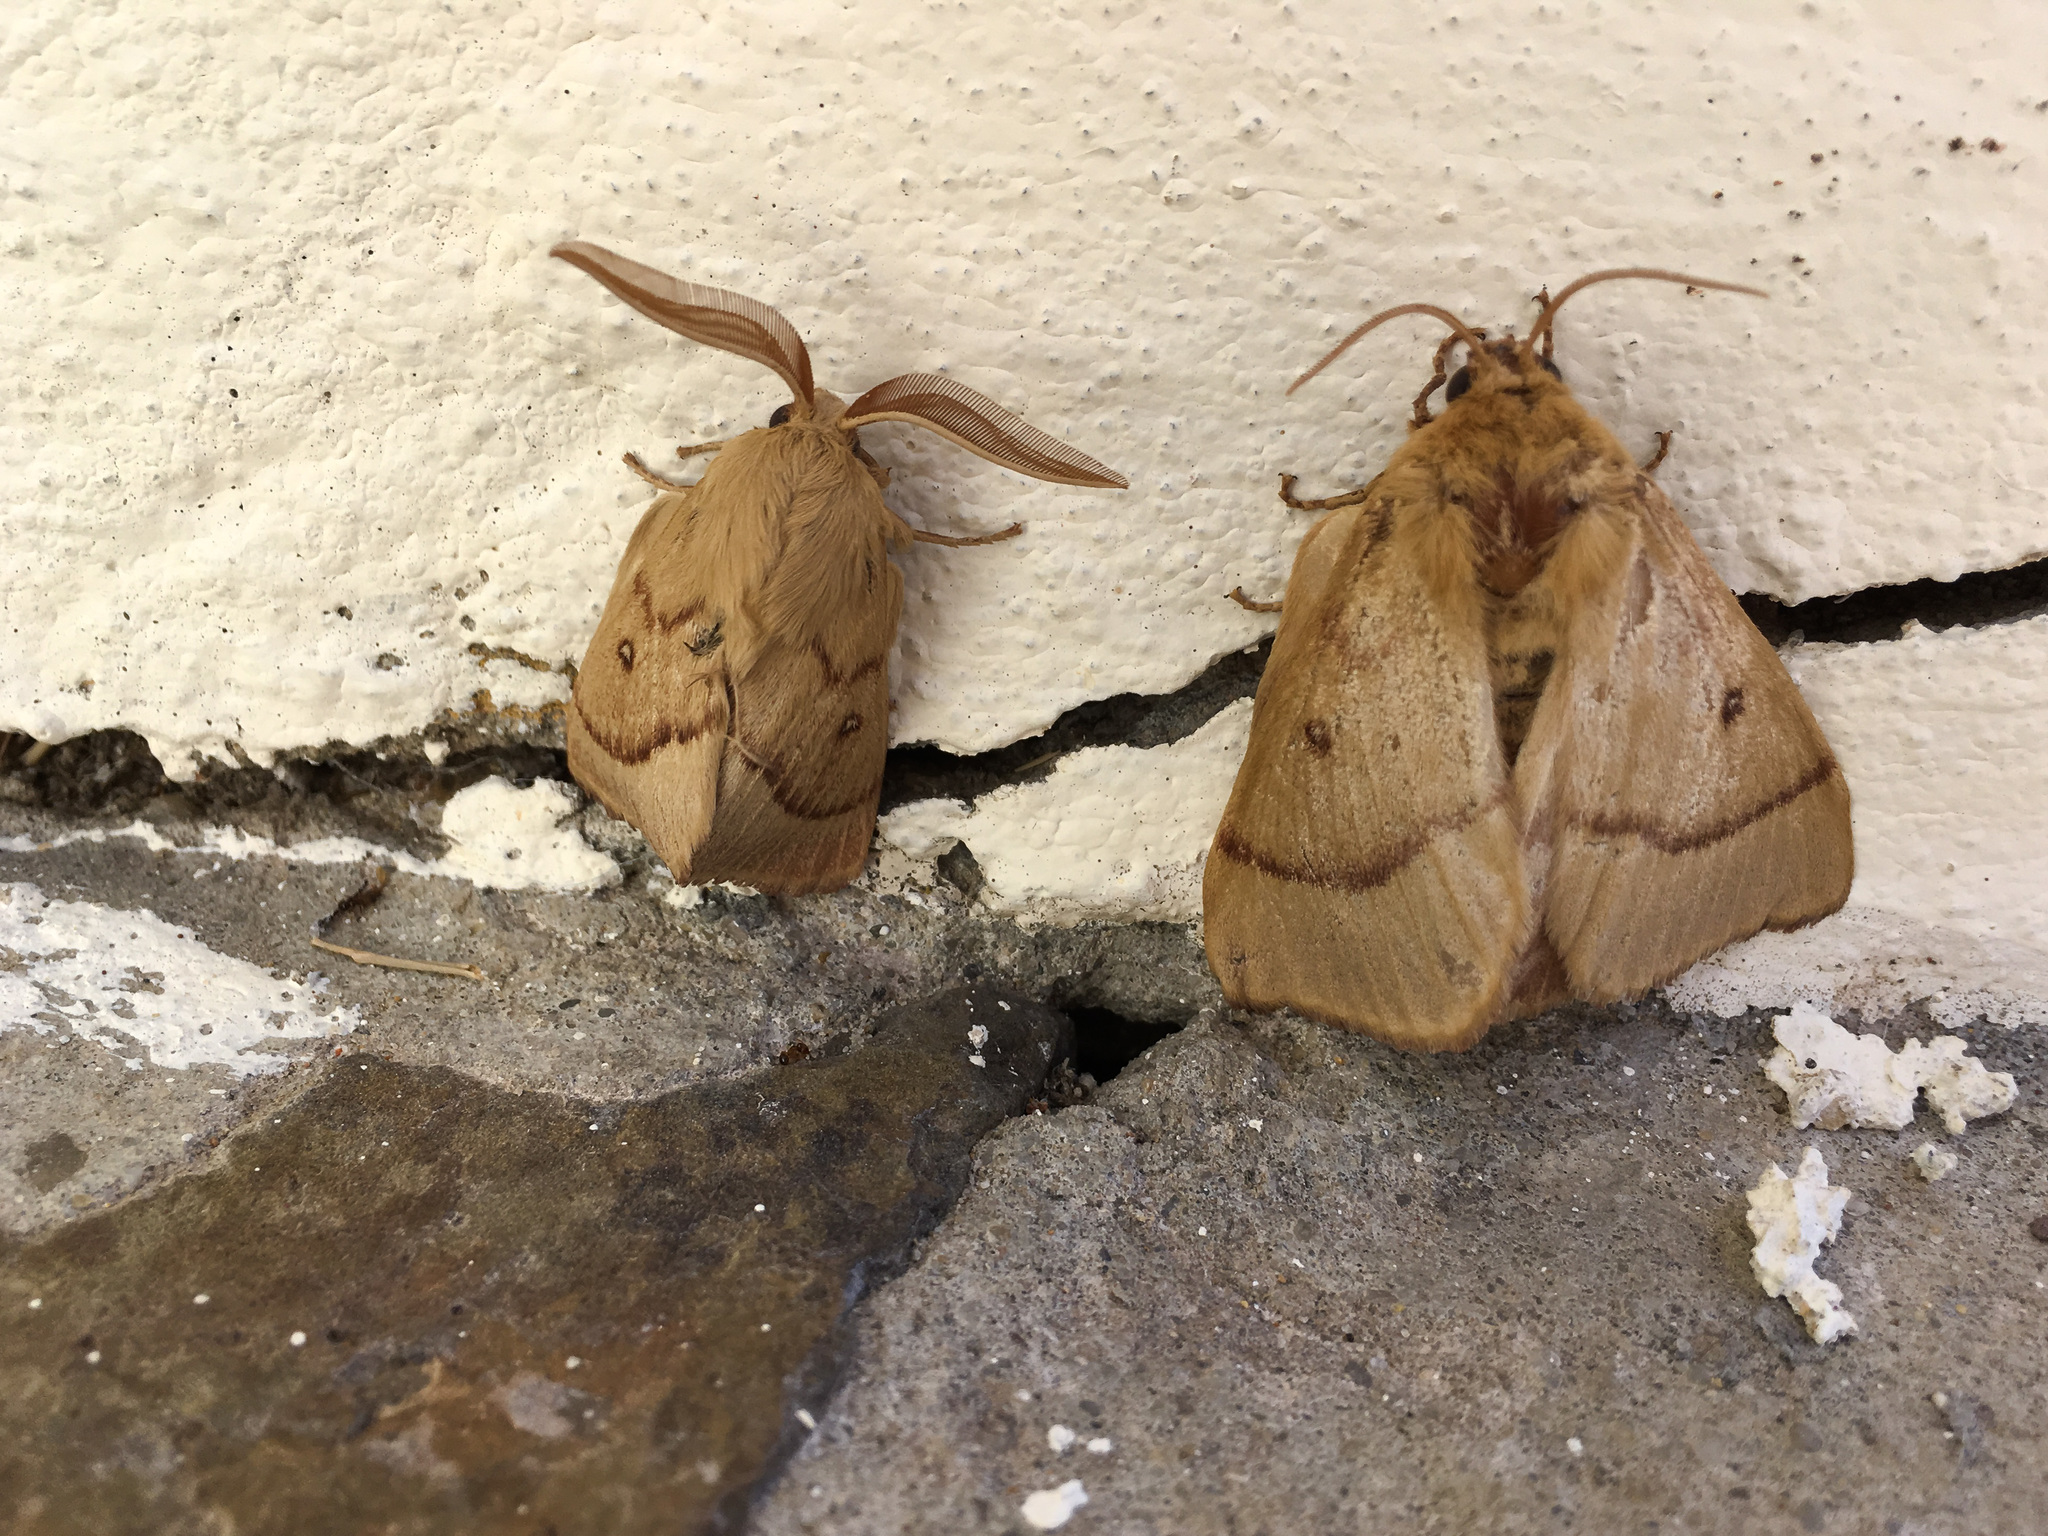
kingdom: Animalia
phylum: Arthropoda
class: Insecta
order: Lepidoptera
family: Lasiocampidae
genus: Lasiocampa
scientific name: Lasiocampa trifolii
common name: Grass eggar
